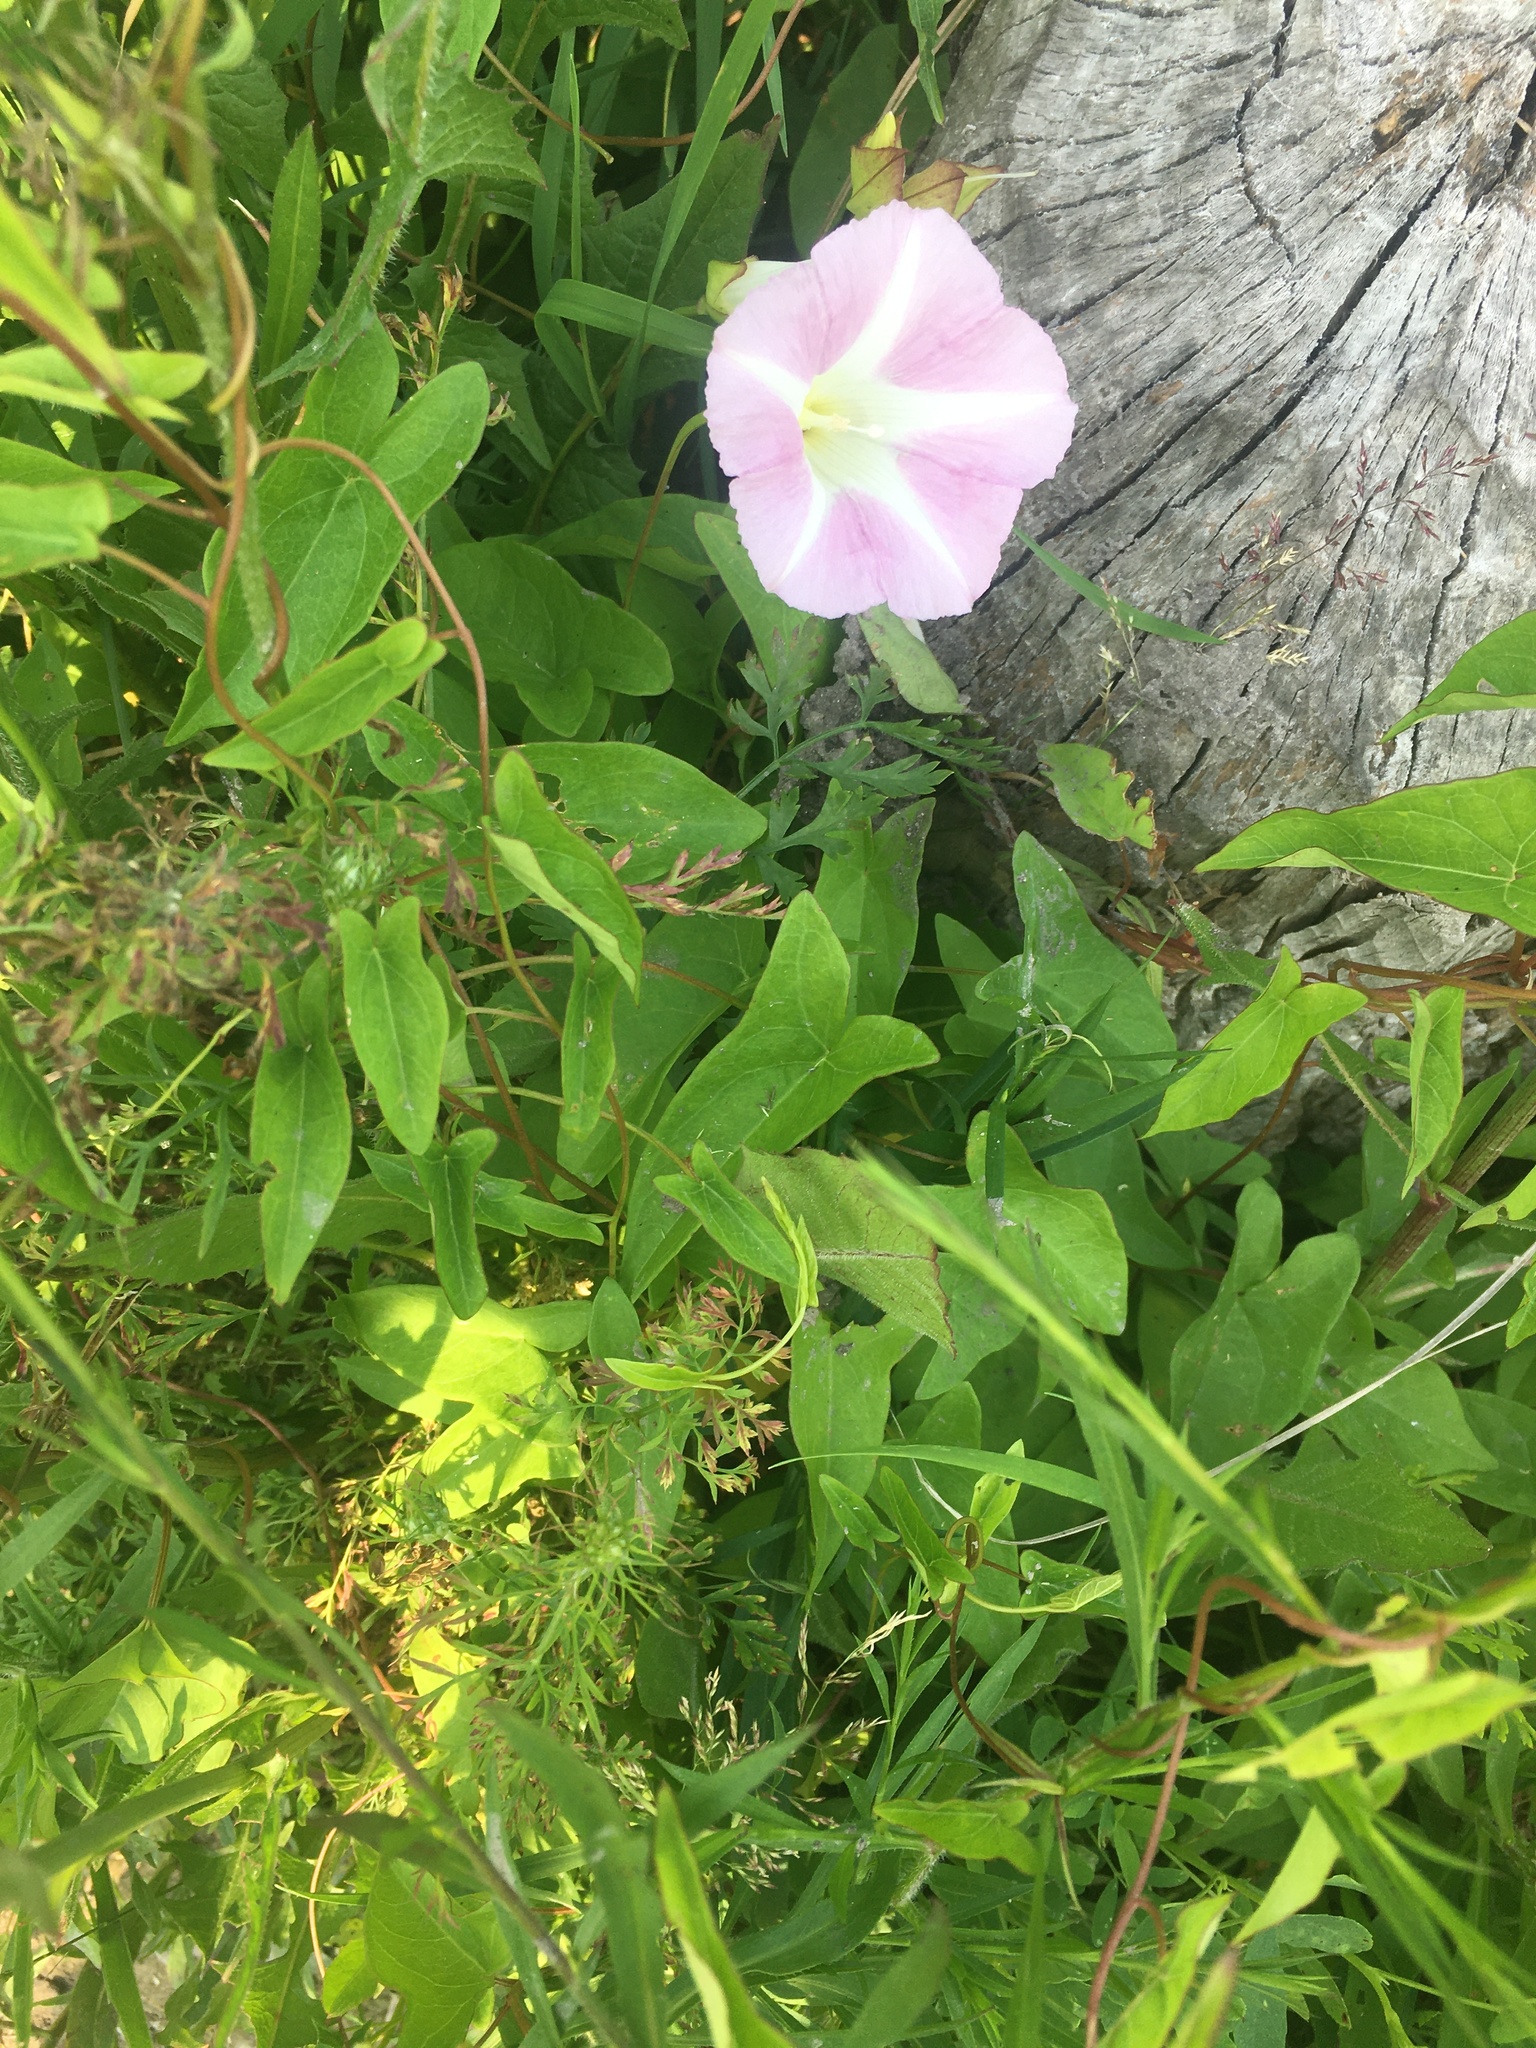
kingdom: Plantae
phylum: Tracheophyta
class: Magnoliopsida
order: Solanales
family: Convolvulaceae
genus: Calystegia
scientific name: Calystegia sepium
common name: Hedge bindweed
